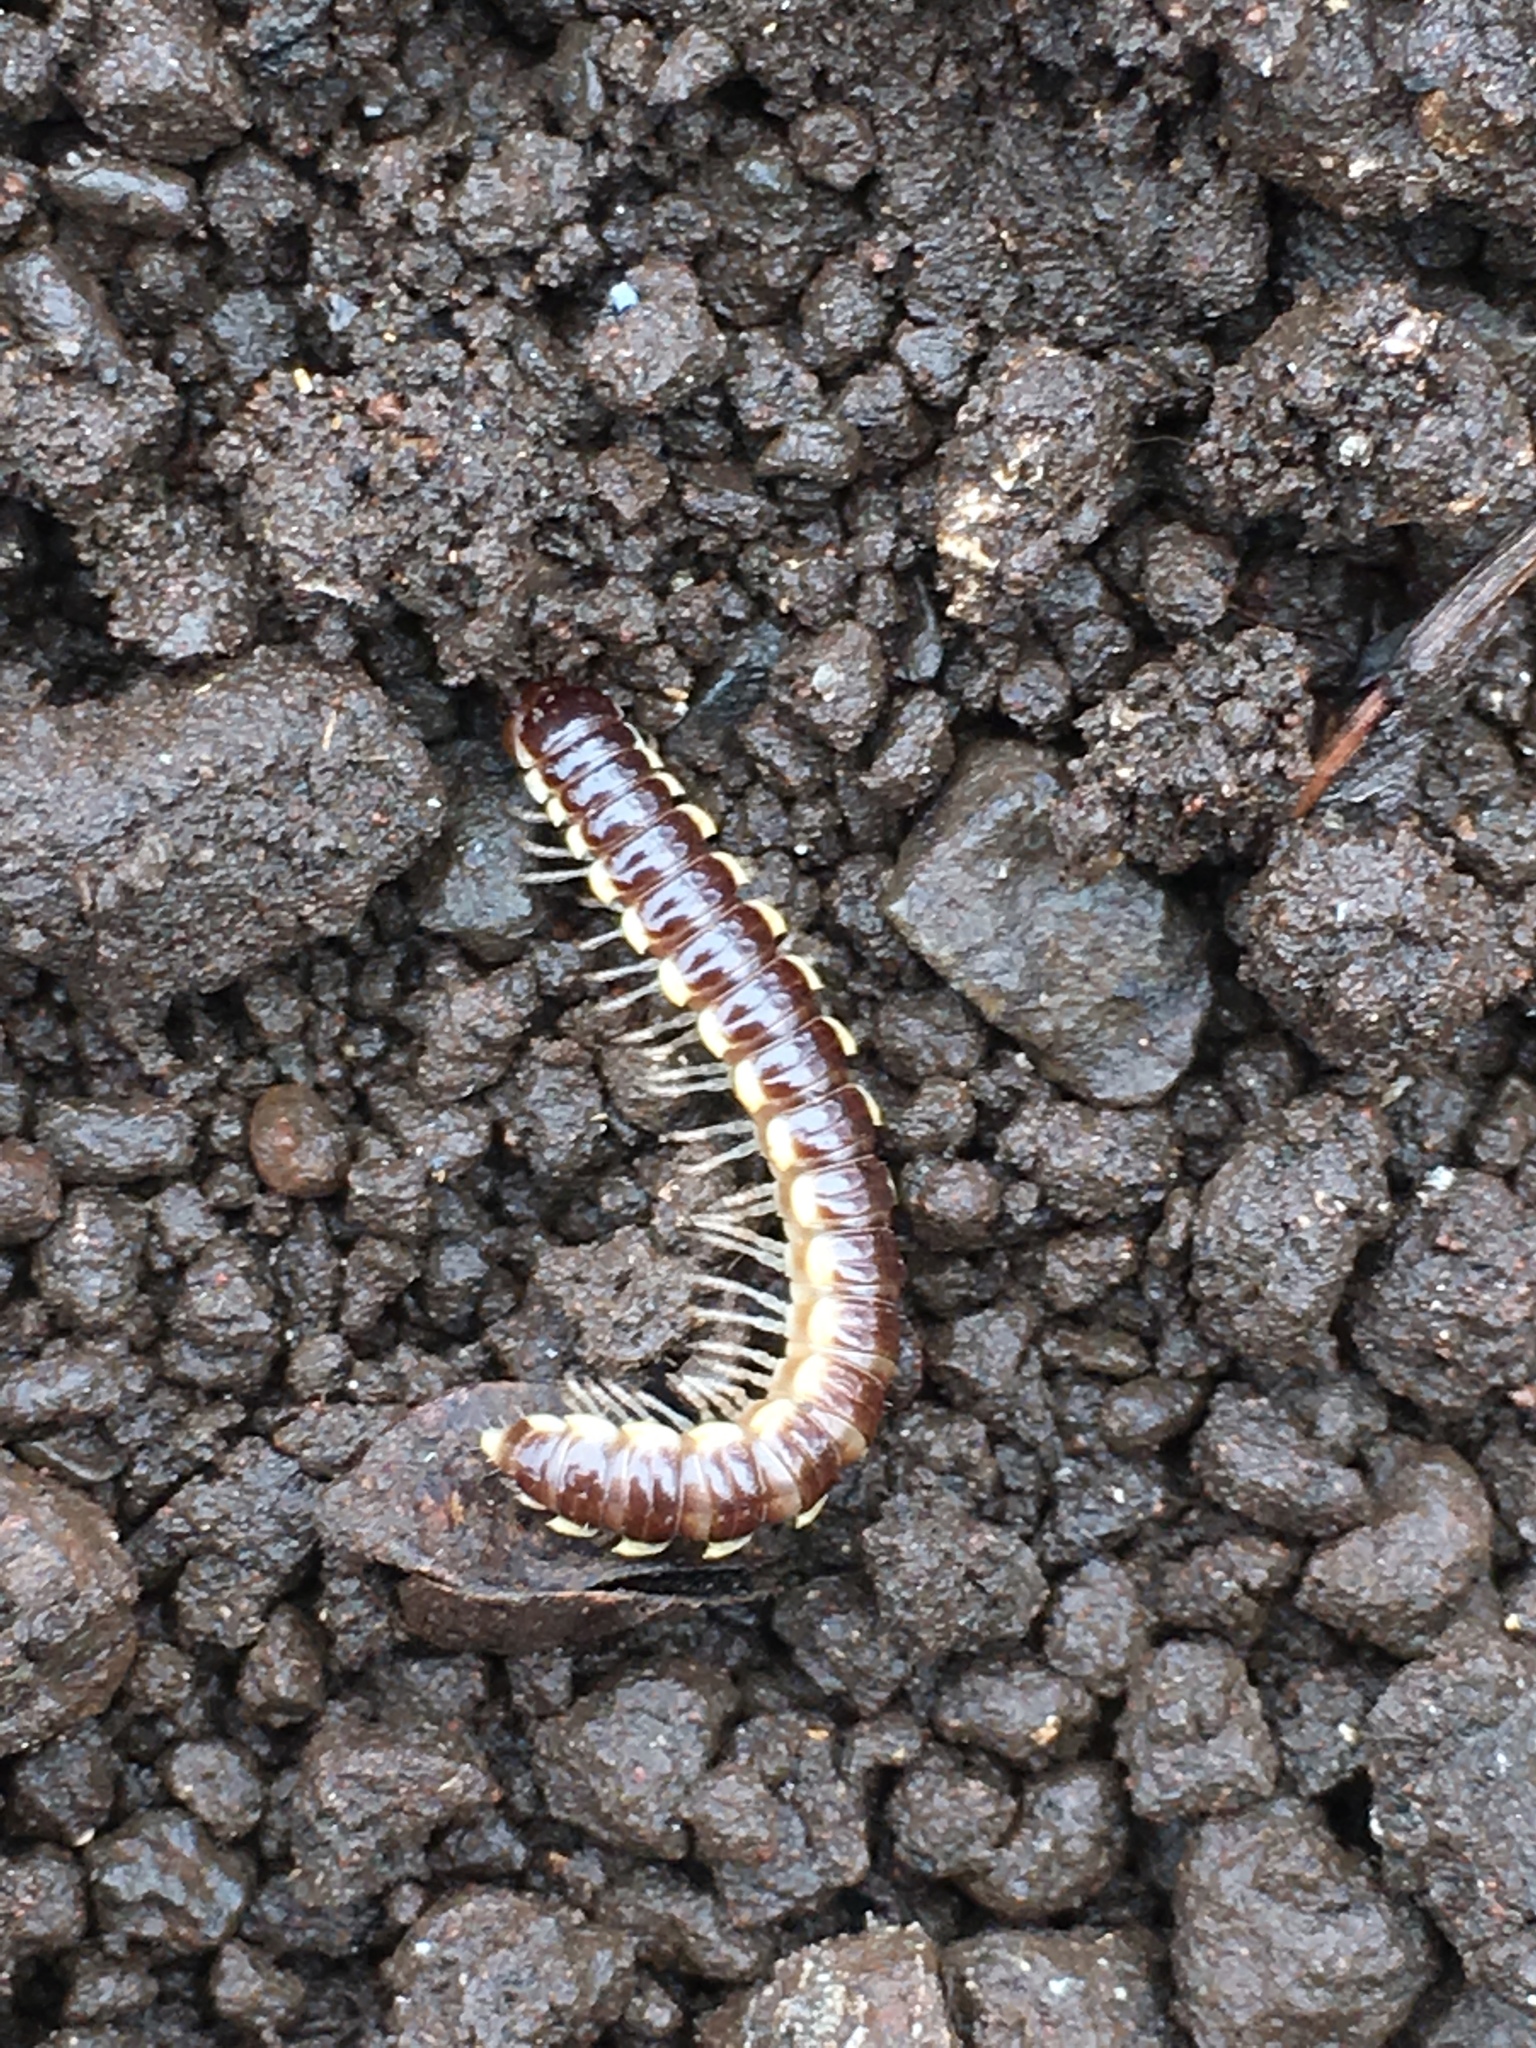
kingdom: Animalia
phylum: Arthropoda
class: Diplopoda
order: Polydesmida
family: Paradoxosomatidae
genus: Orthomorpha
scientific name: Orthomorpha coarctata
